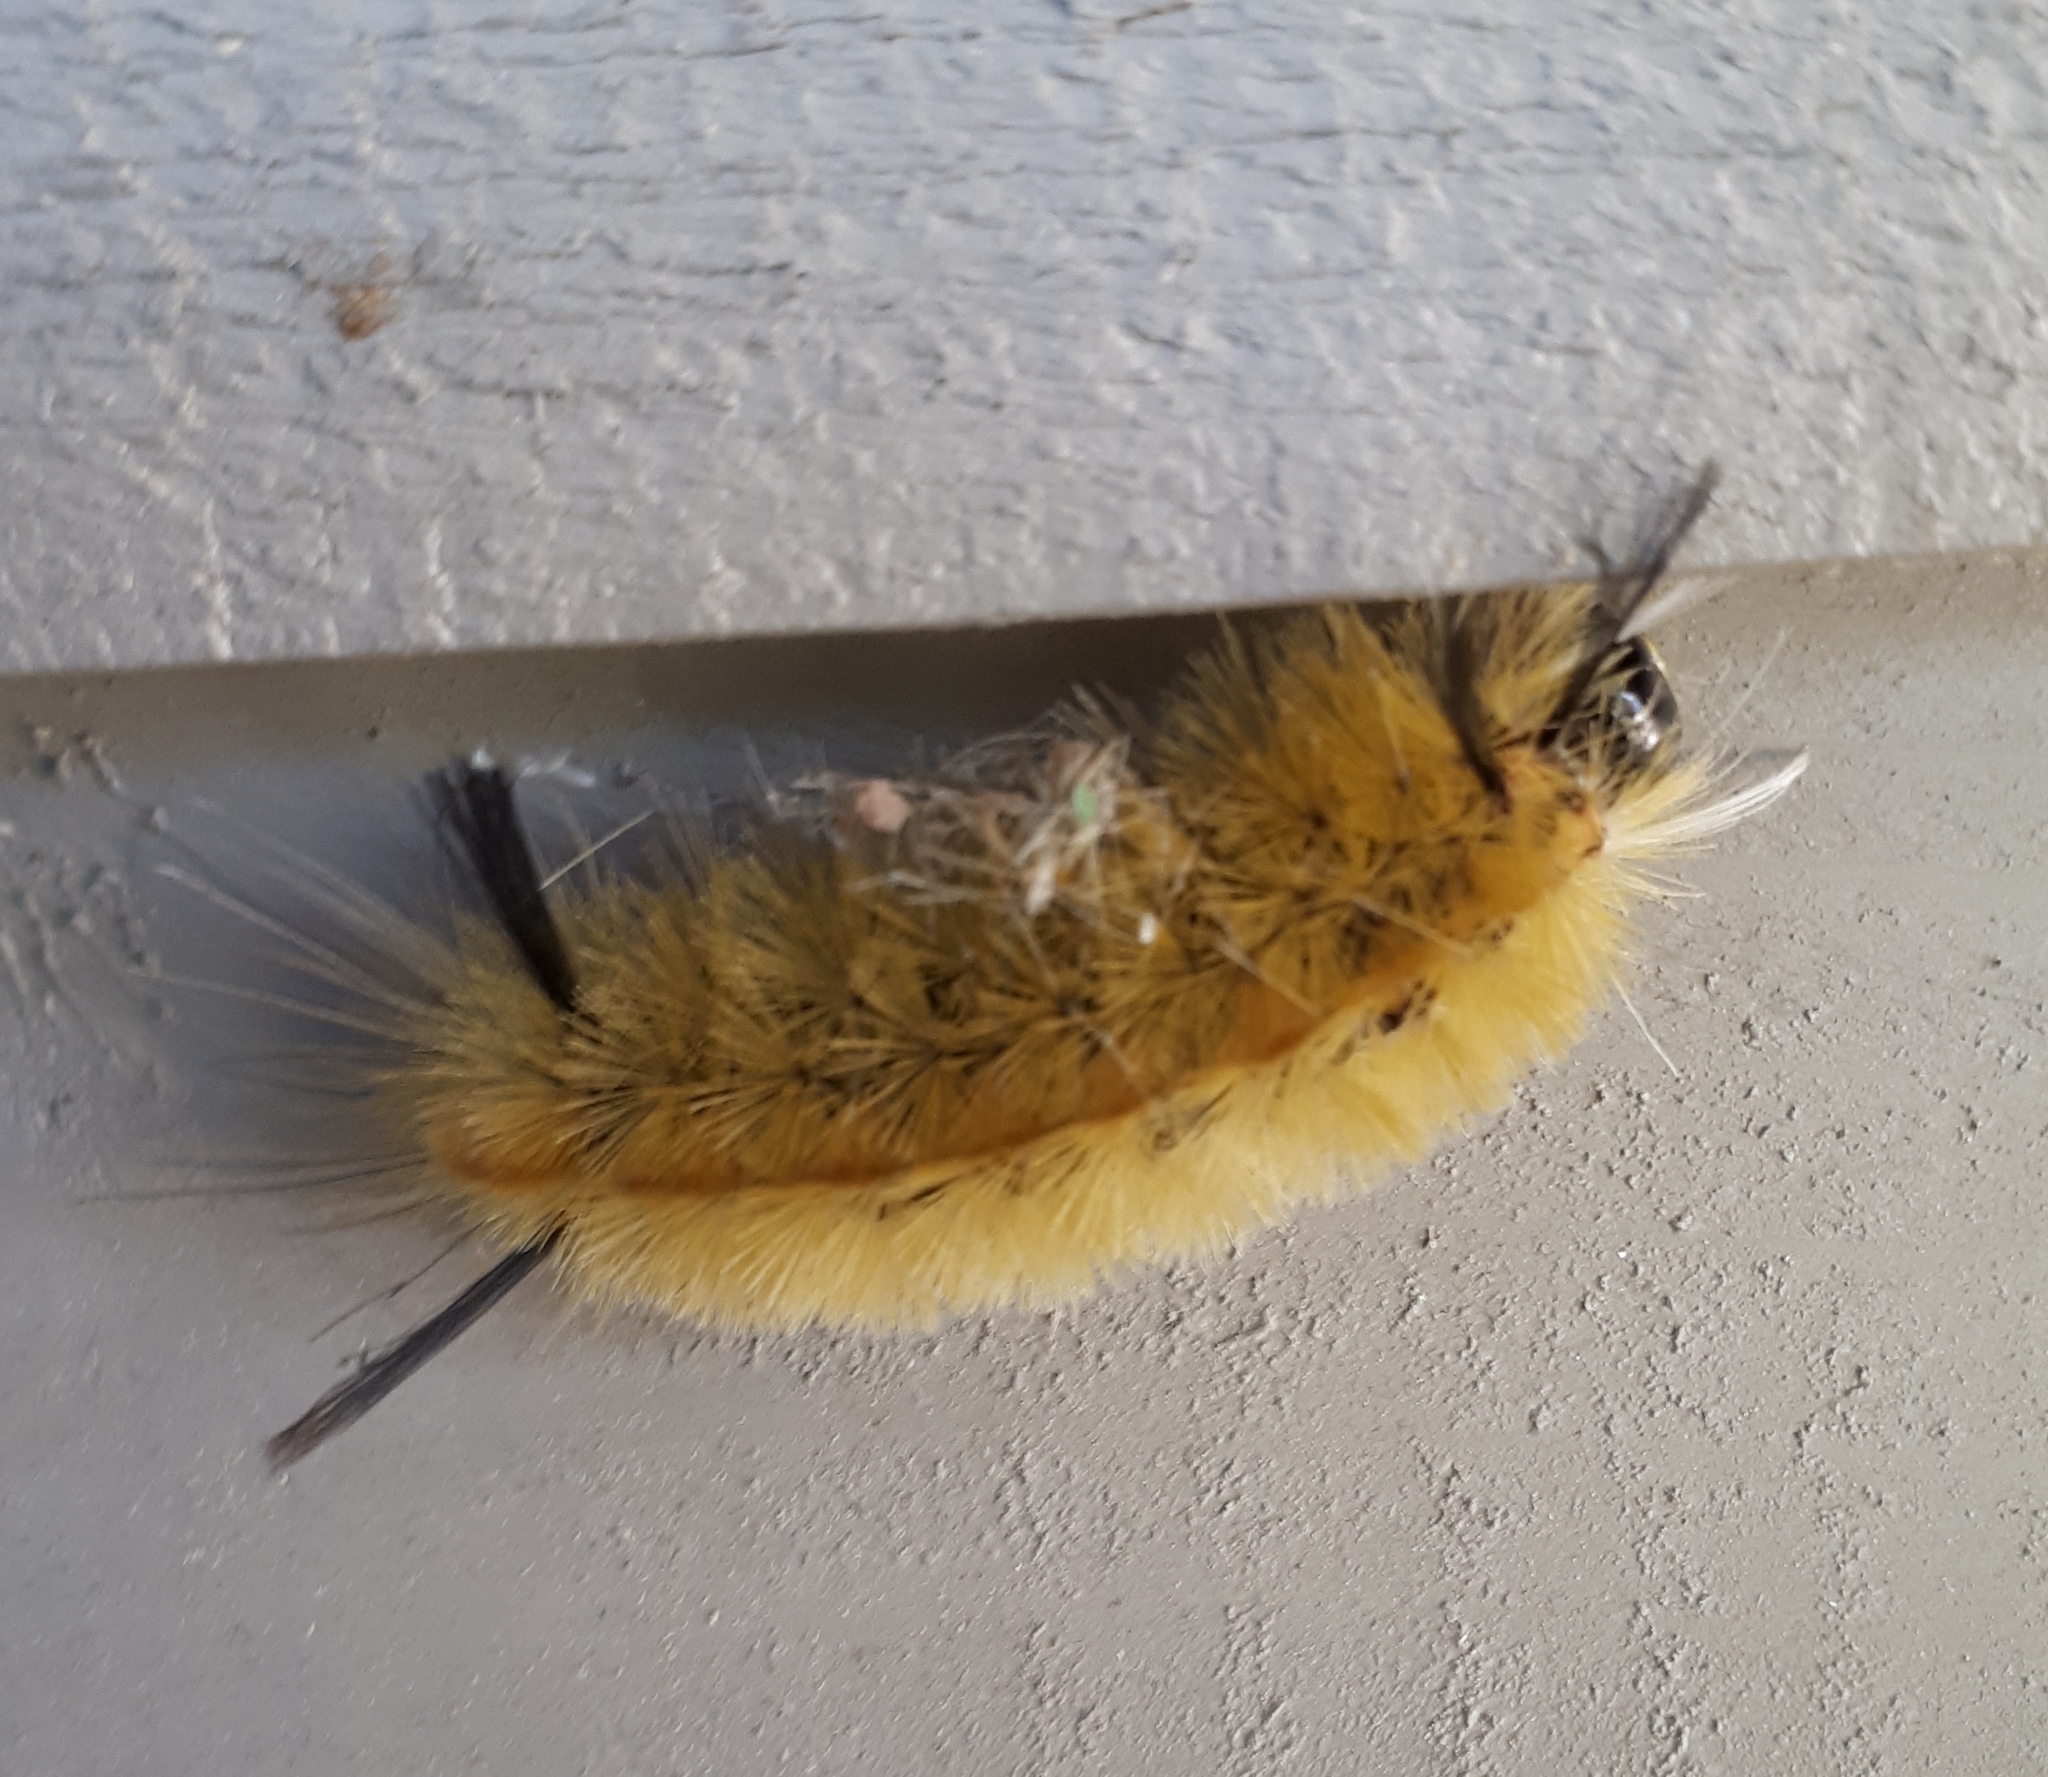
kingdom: Animalia
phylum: Arthropoda
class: Insecta
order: Lepidoptera
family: Erebidae
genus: Halysidota
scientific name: Halysidota tessellaris
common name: Banded tussock moth
